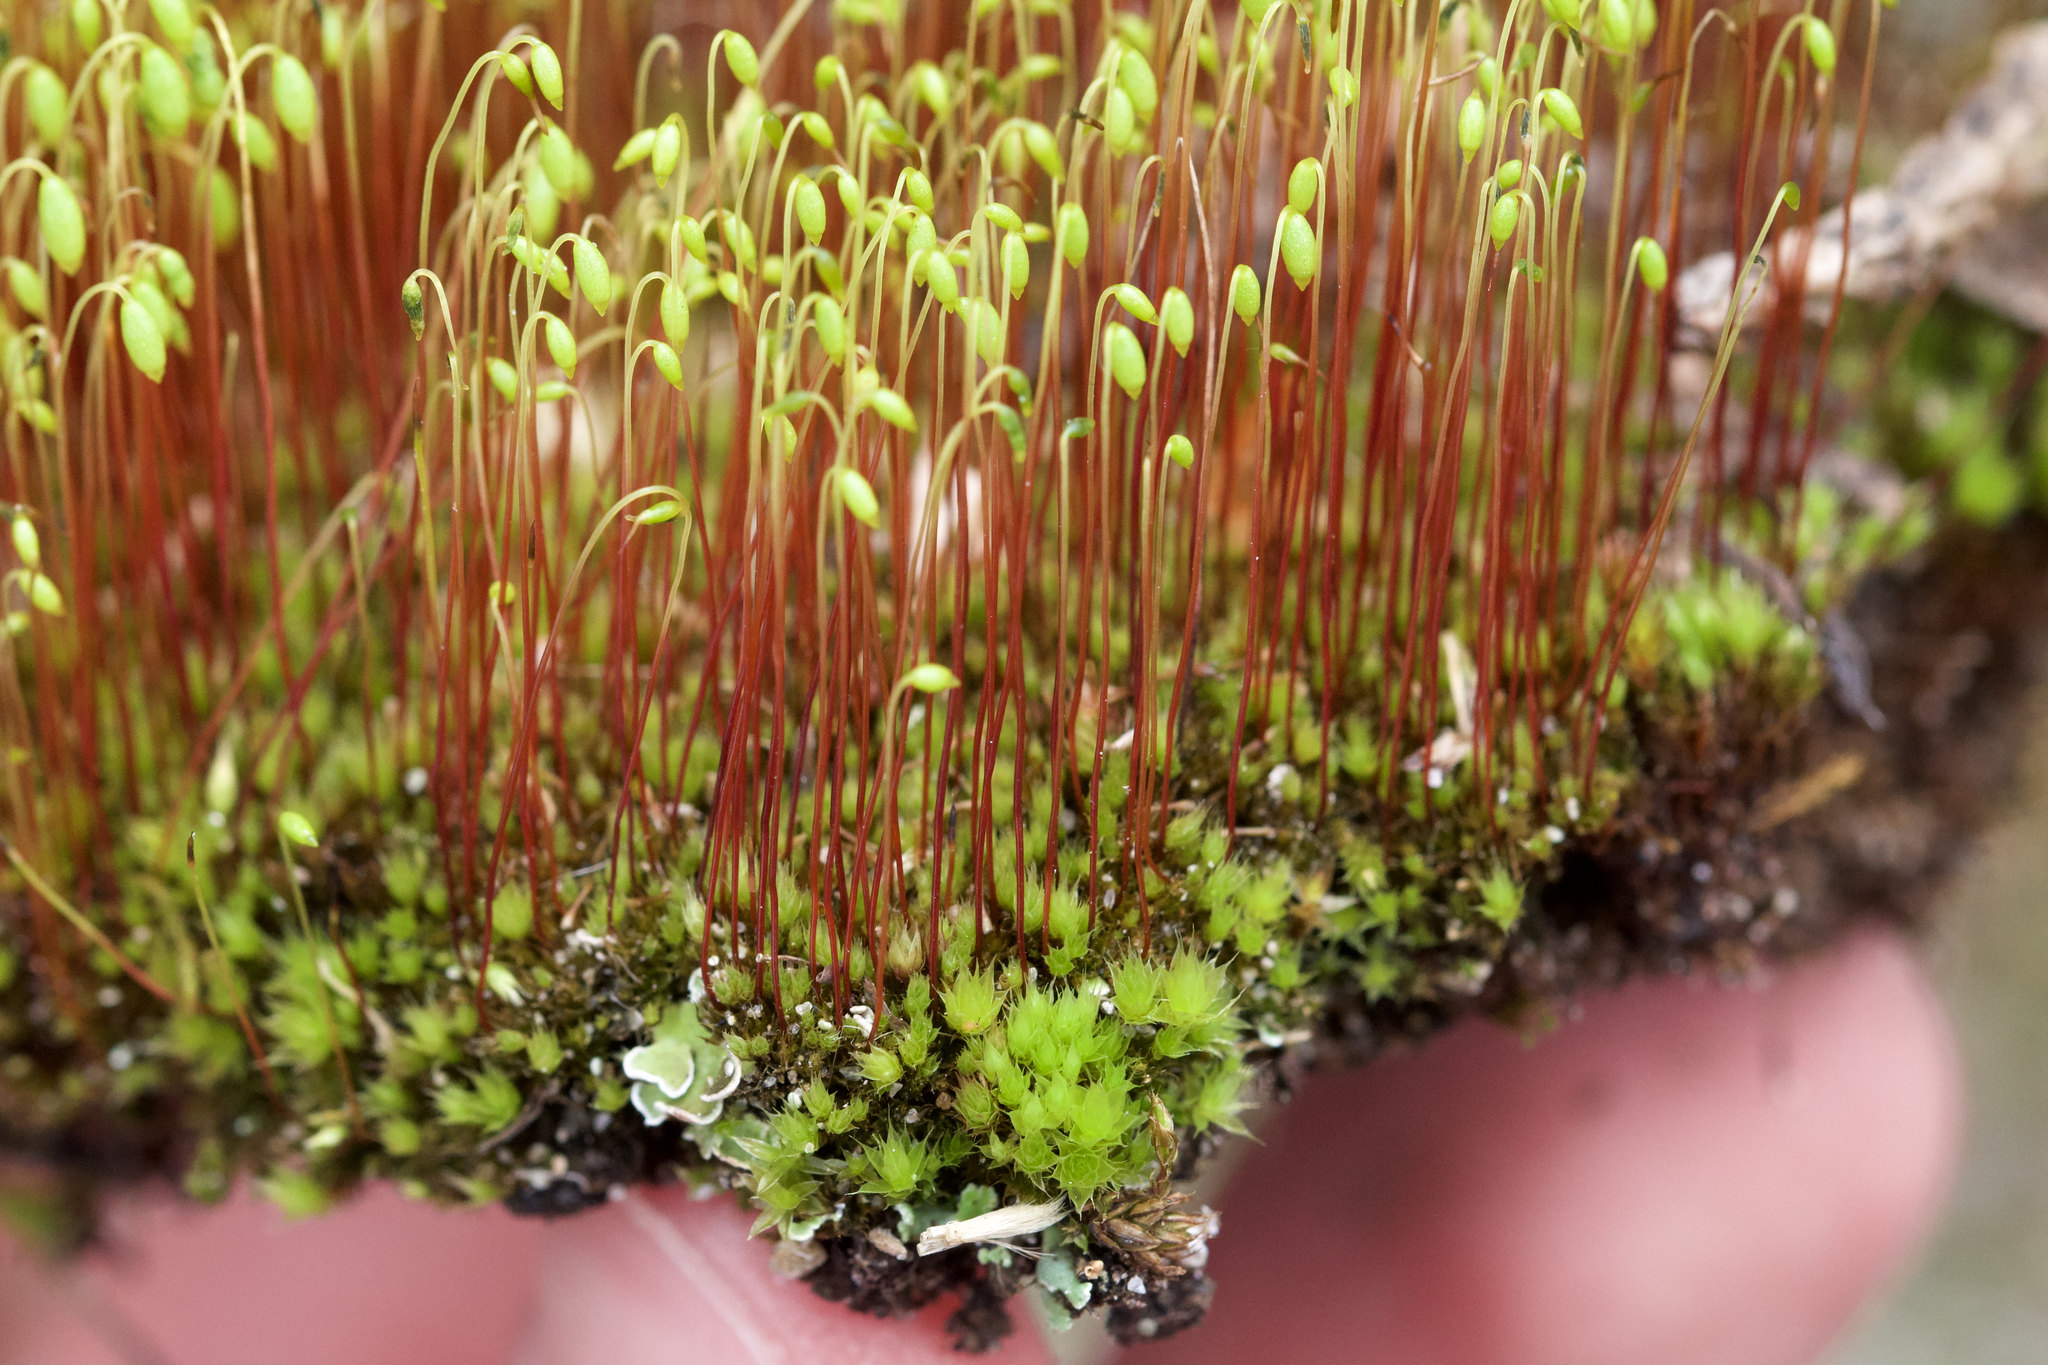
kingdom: Plantae
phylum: Bryophyta
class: Bryopsida
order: Bryales
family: Bryaceae
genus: Gemmabryum
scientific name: Gemmabryum caespiticium
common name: Handbell moss
